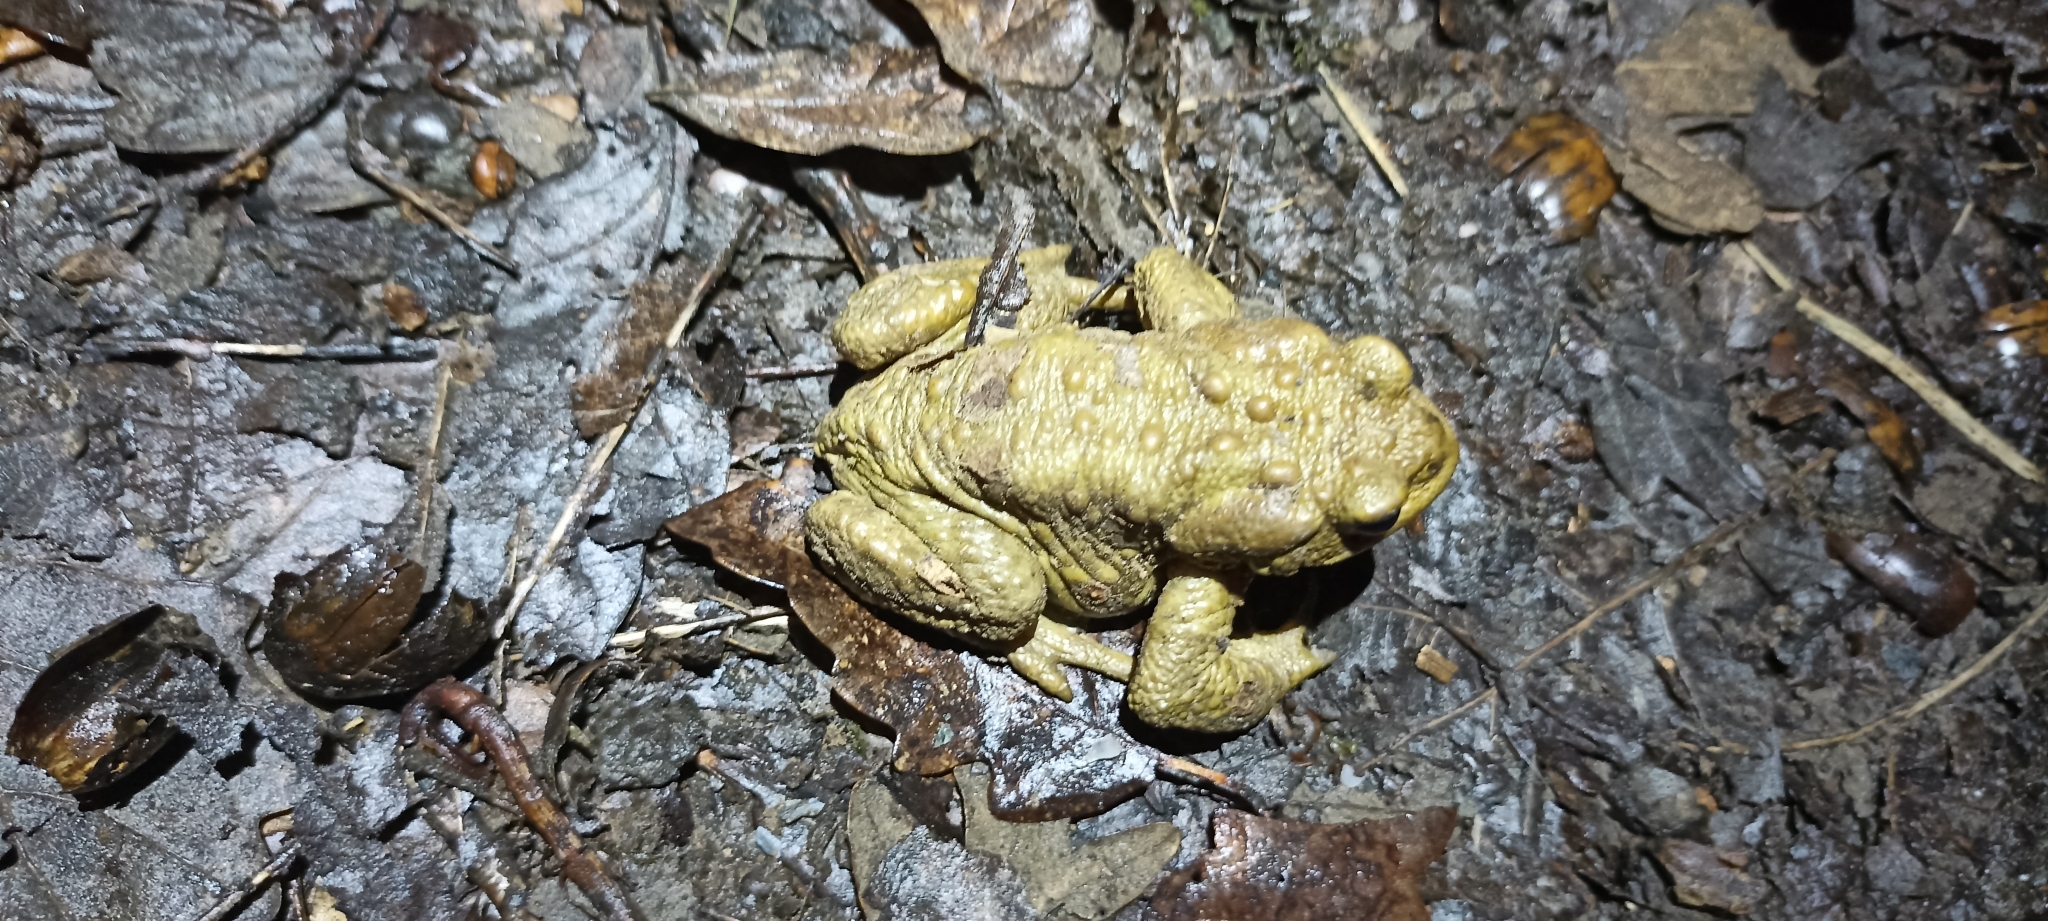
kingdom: Animalia
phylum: Chordata
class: Amphibia
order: Anura
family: Bufonidae
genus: Bufo
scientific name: Bufo spinosus
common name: Western common toad
